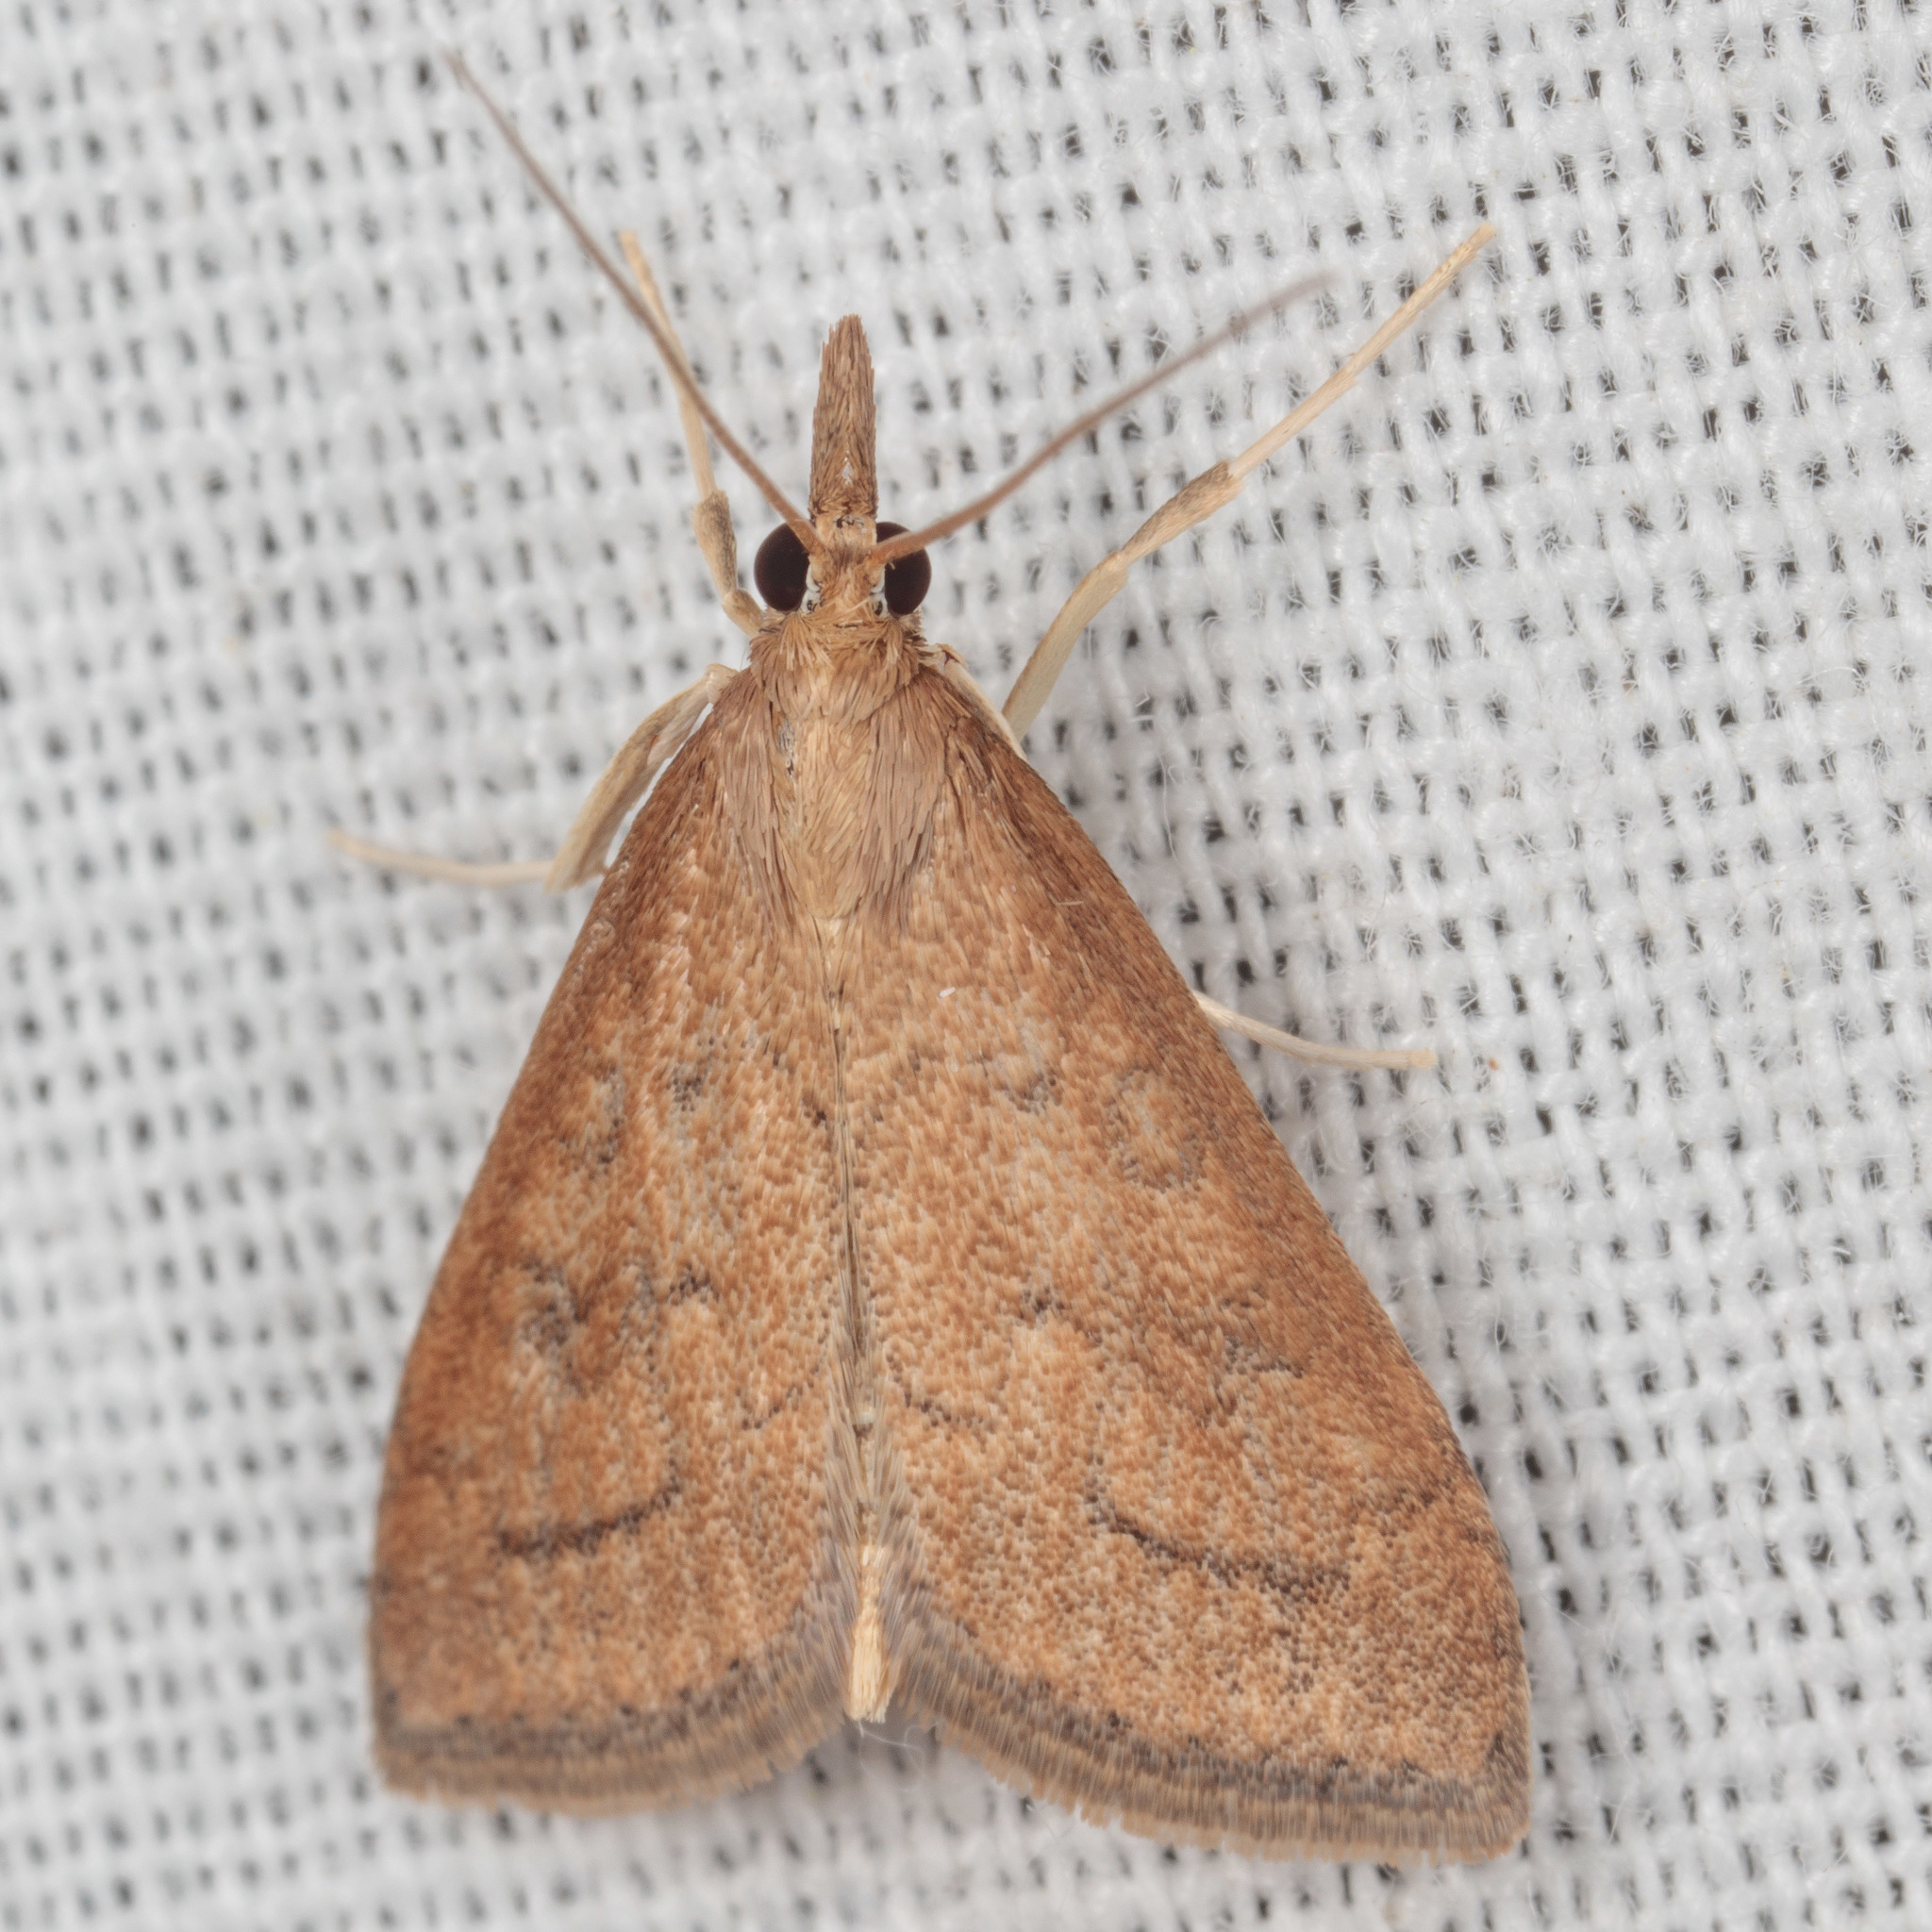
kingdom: Animalia
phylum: Arthropoda
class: Insecta
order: Lepidoptera
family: Crambidae
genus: Udea
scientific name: Udea rubigalis
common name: Celery leaftier moth
